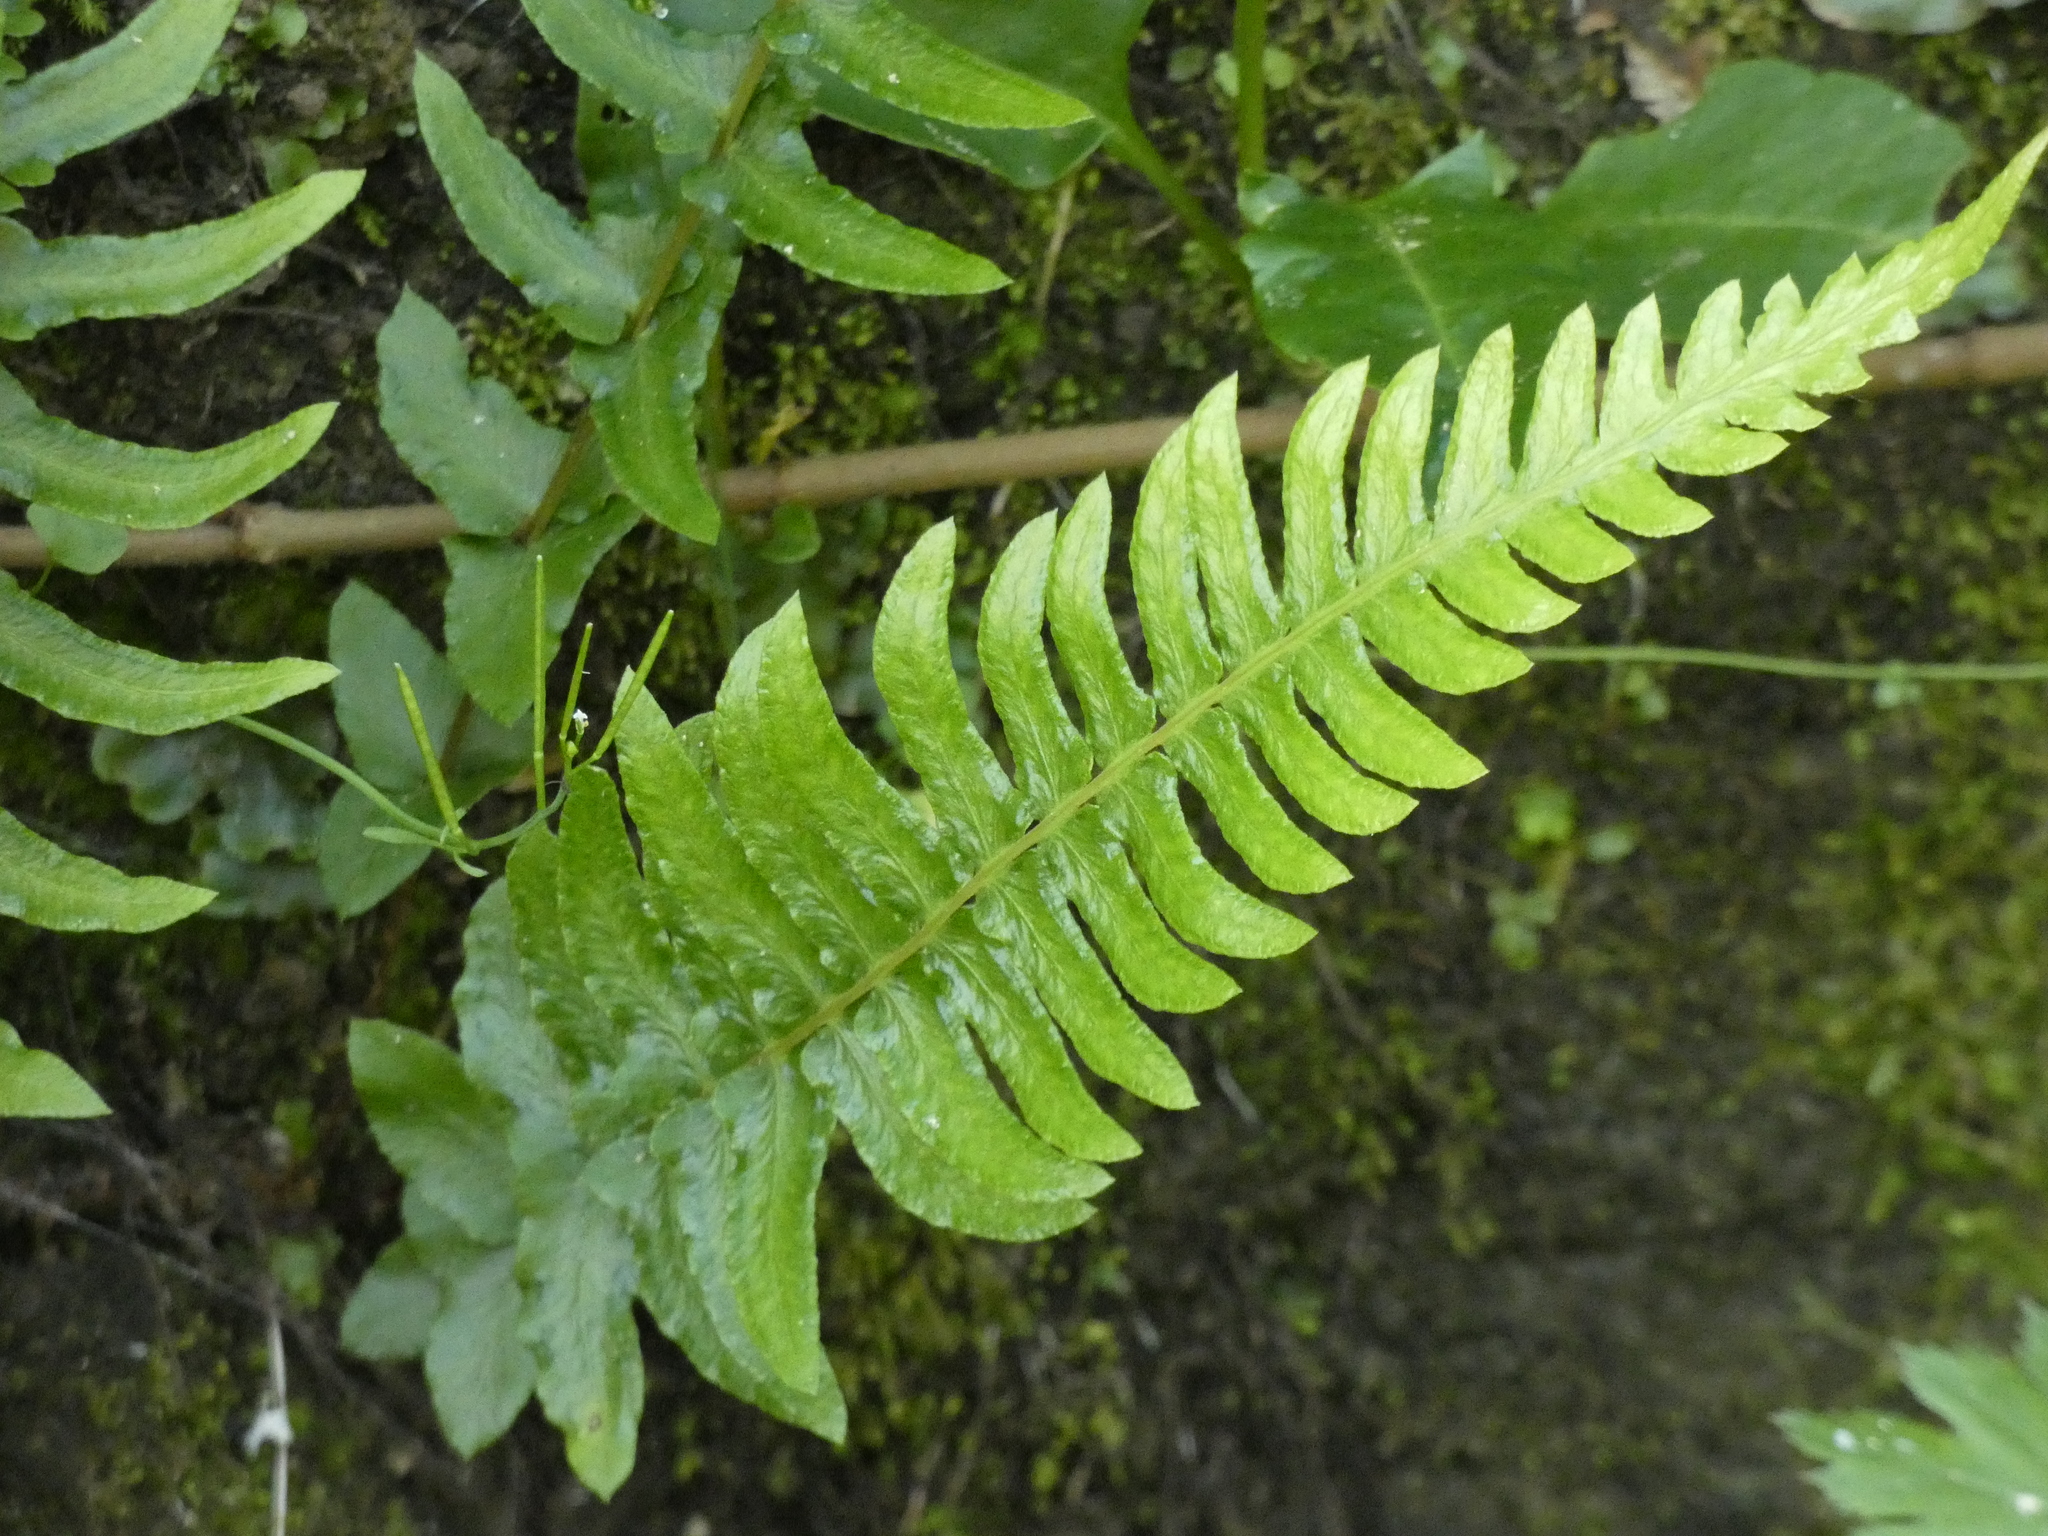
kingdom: Plantae
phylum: Tracheophyta
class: Polypodiopsida
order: Polypodiales
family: Blechnaceae
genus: Blechnum
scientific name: Blechnum hastatum
